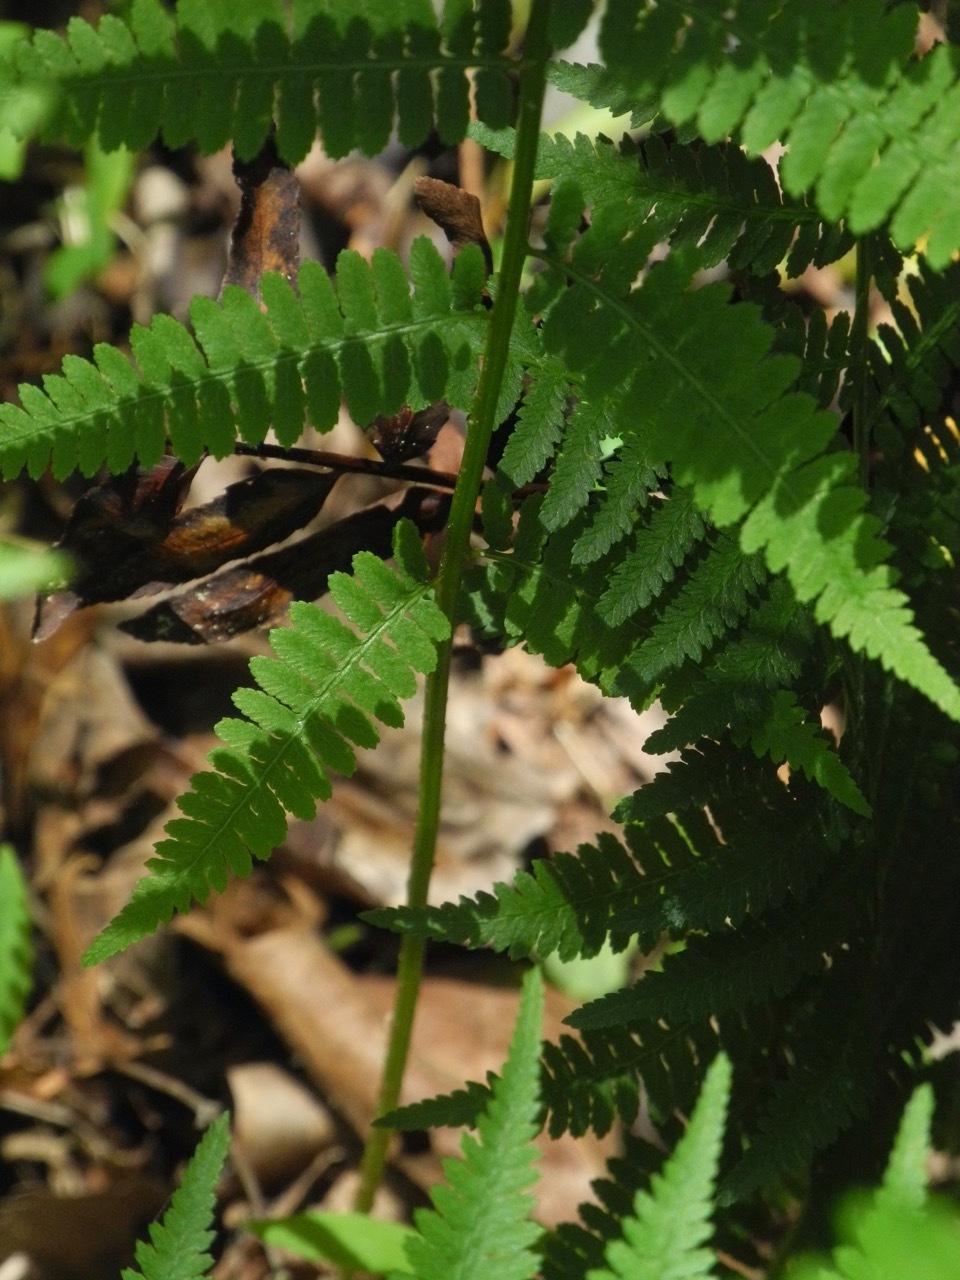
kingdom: Plantae
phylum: Tracheophyta
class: Polypodiopsida
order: Polypodiales
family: Athyriaceae
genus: Athyrium
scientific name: Athyrium asplenioides
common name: Southern lady fern
